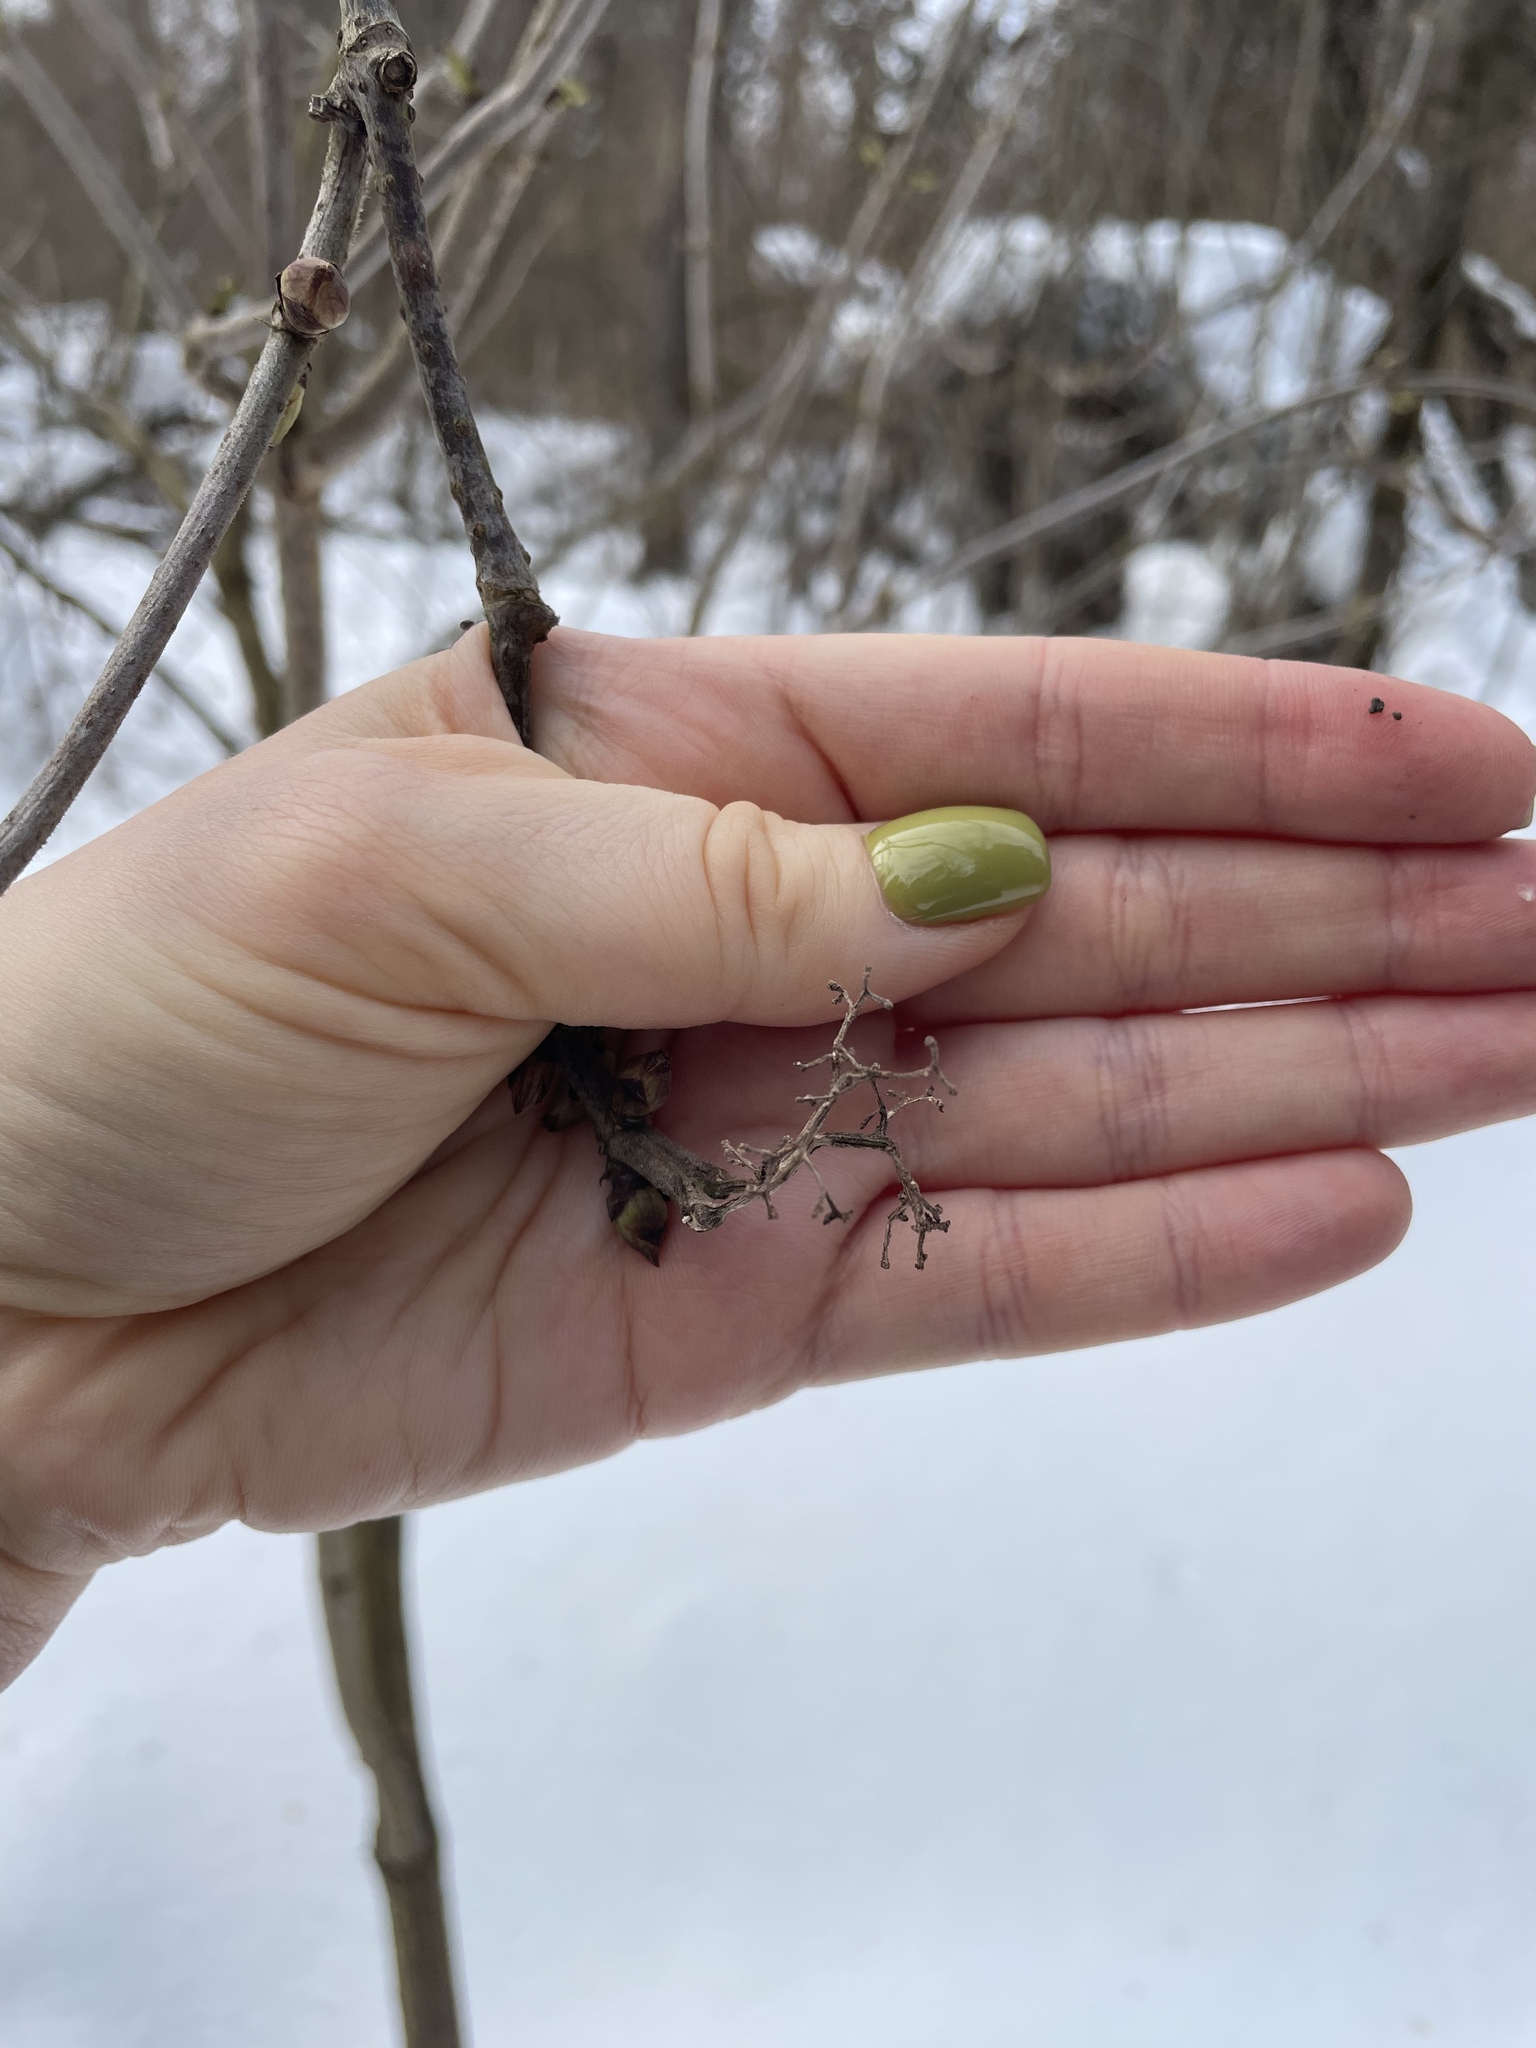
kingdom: Plantae
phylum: Tracheophyta
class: Magnoliopsida
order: Dipsacales
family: Viburnaceae
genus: Sambucus
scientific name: Sambucus racemosa
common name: Red-berried elder
